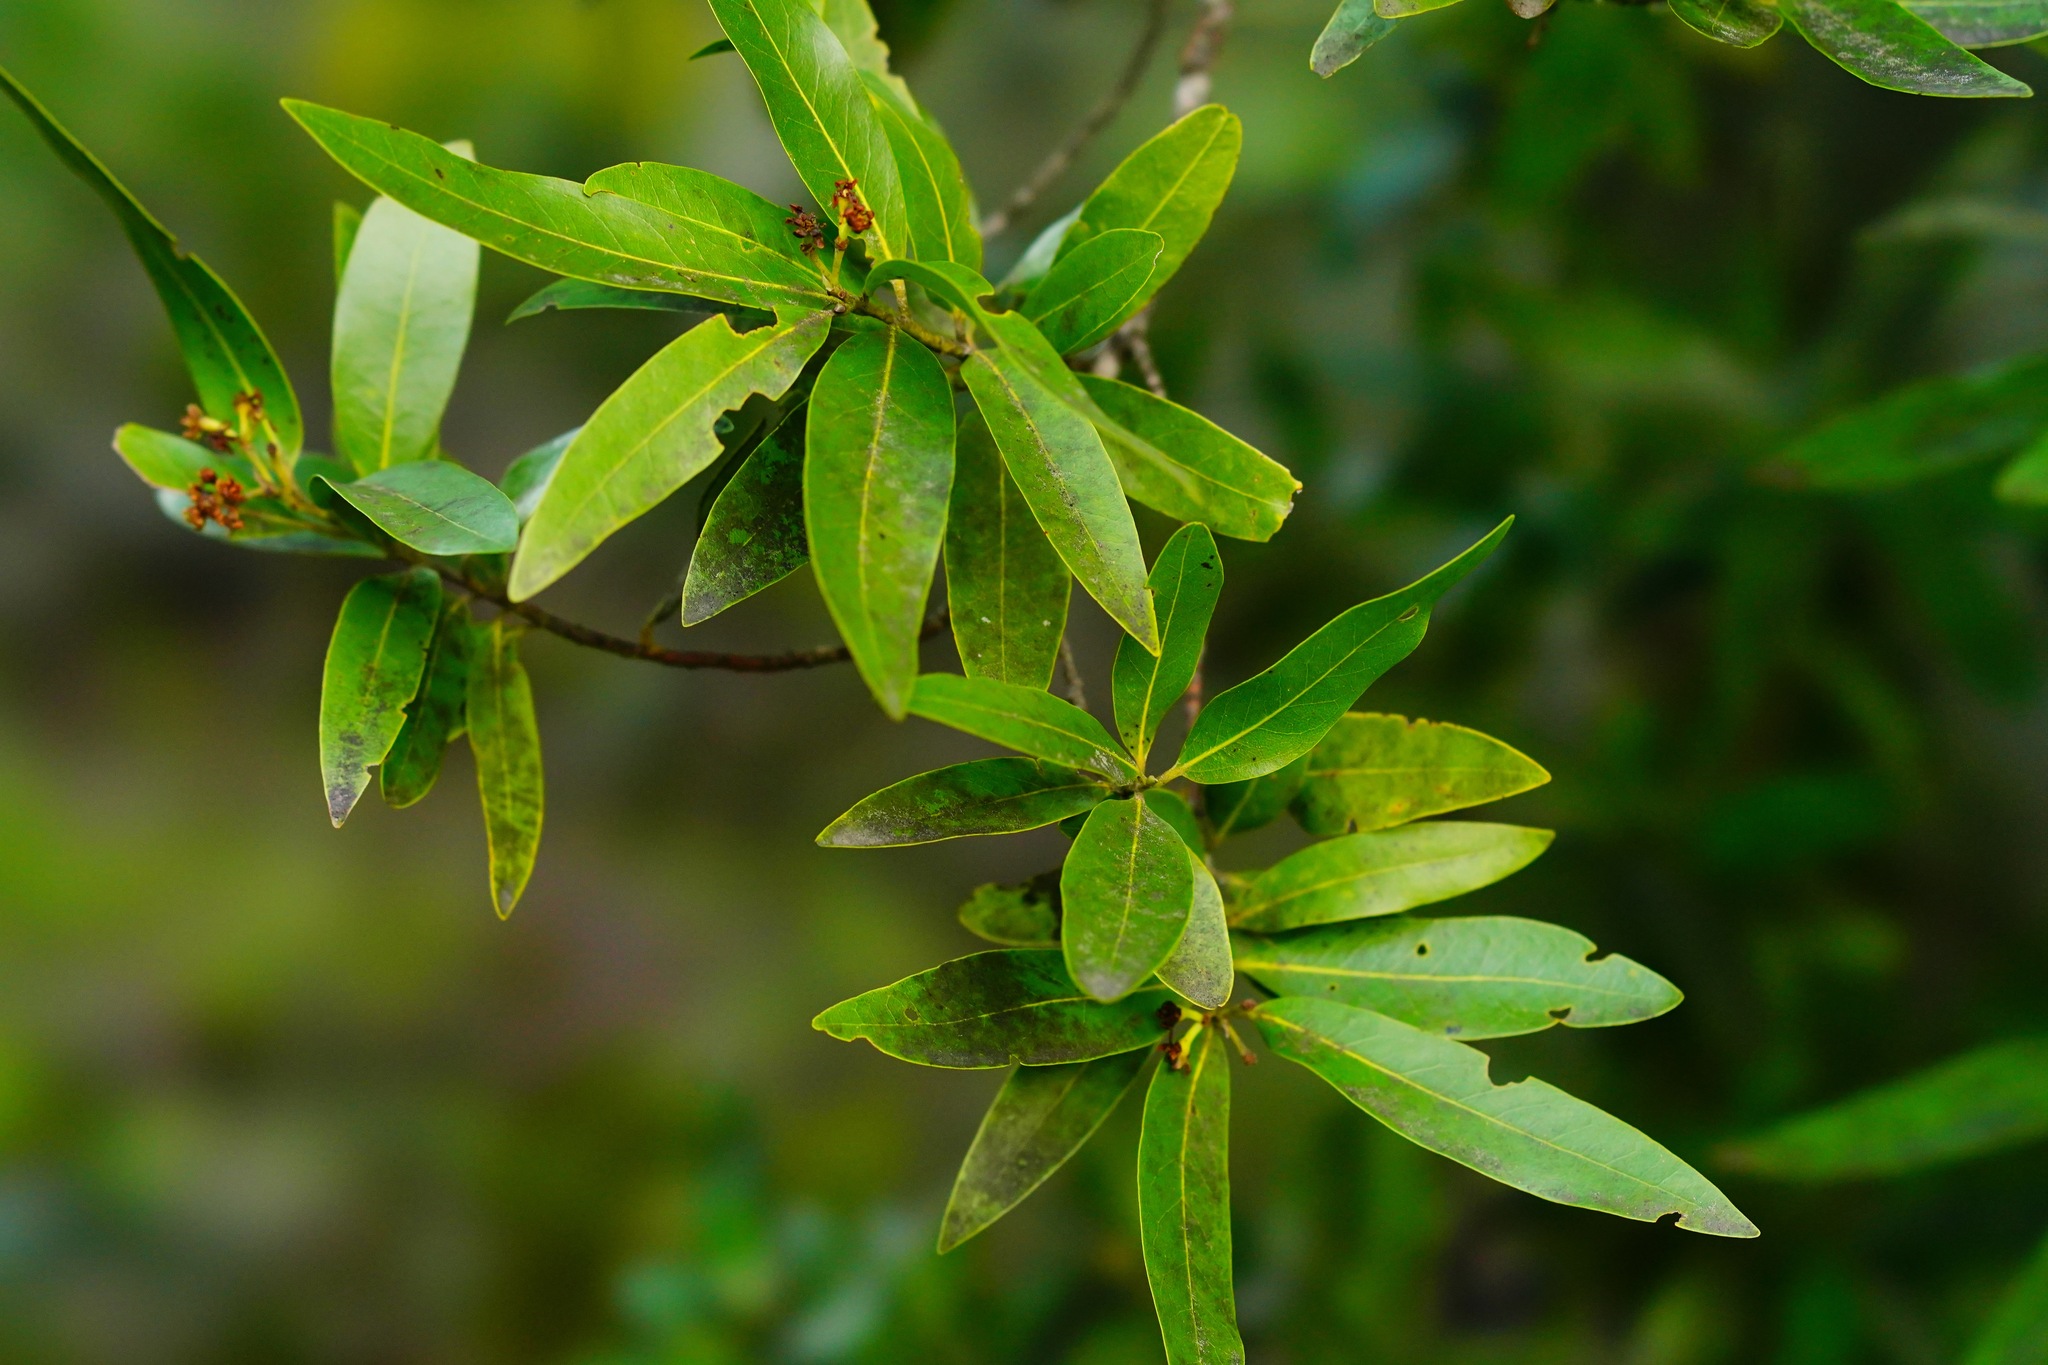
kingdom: Plantae
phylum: Tracheophyta
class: Magnoliopsida
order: Laurales
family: Lauraceae
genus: Umbellularia
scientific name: Umbellularia californica
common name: California bay
